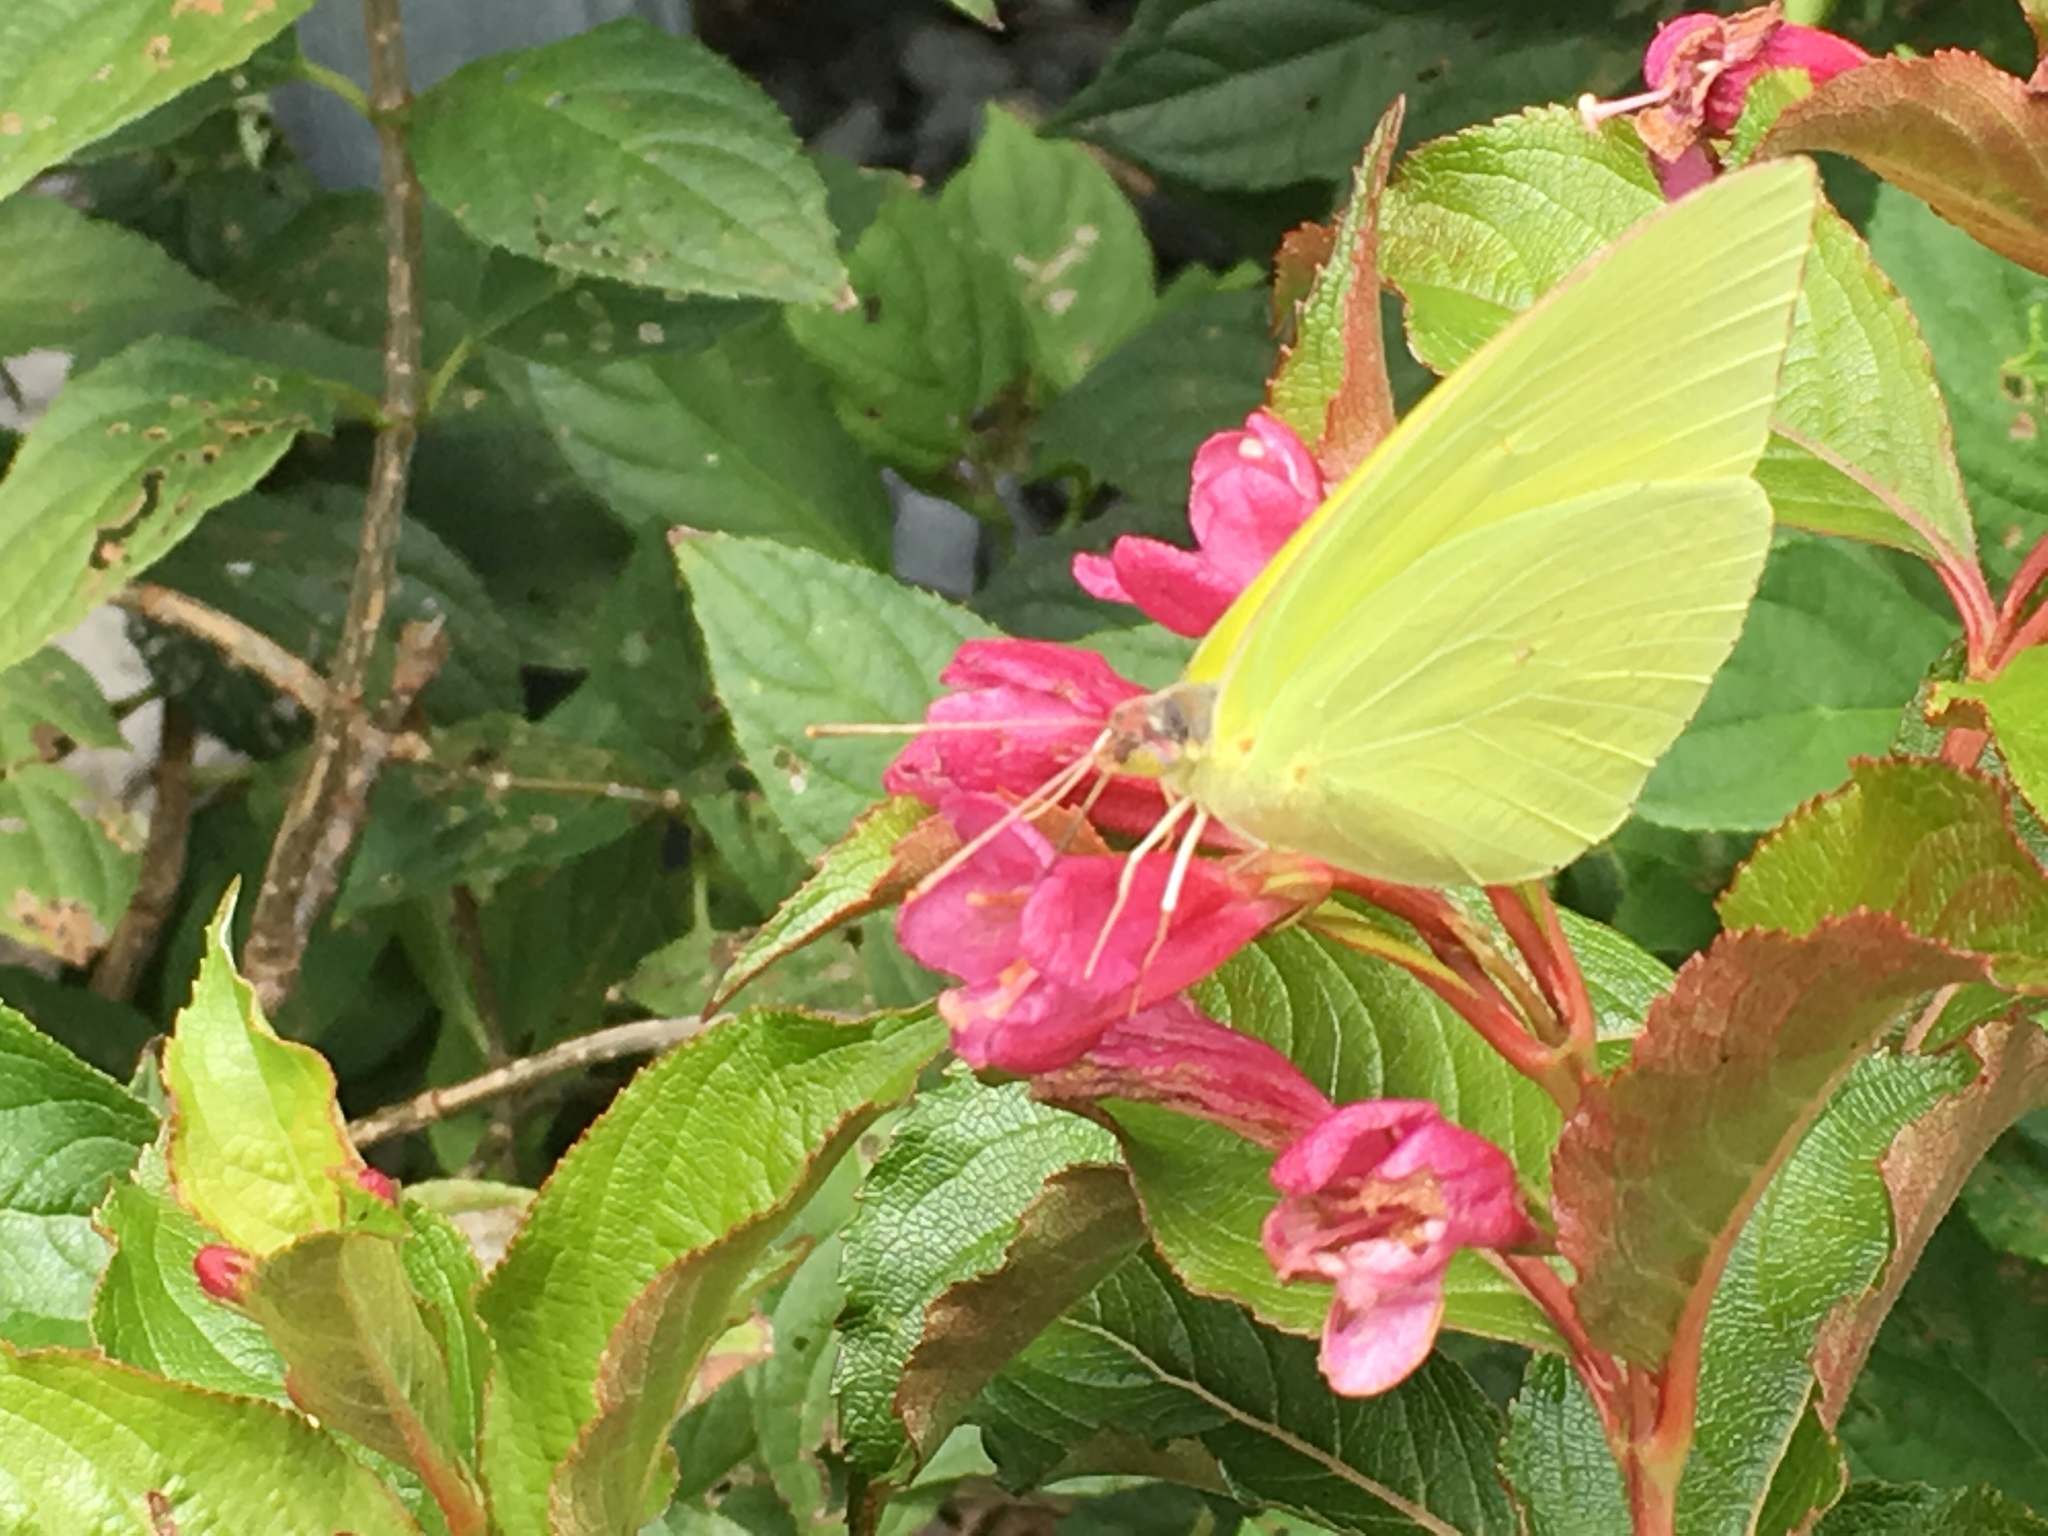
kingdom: Animalia
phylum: Arthropoda
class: Insecta
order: Lepidoptera
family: Pieridae
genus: Phoebis
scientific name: Phoebis sennae
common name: Cloudless sulphur
